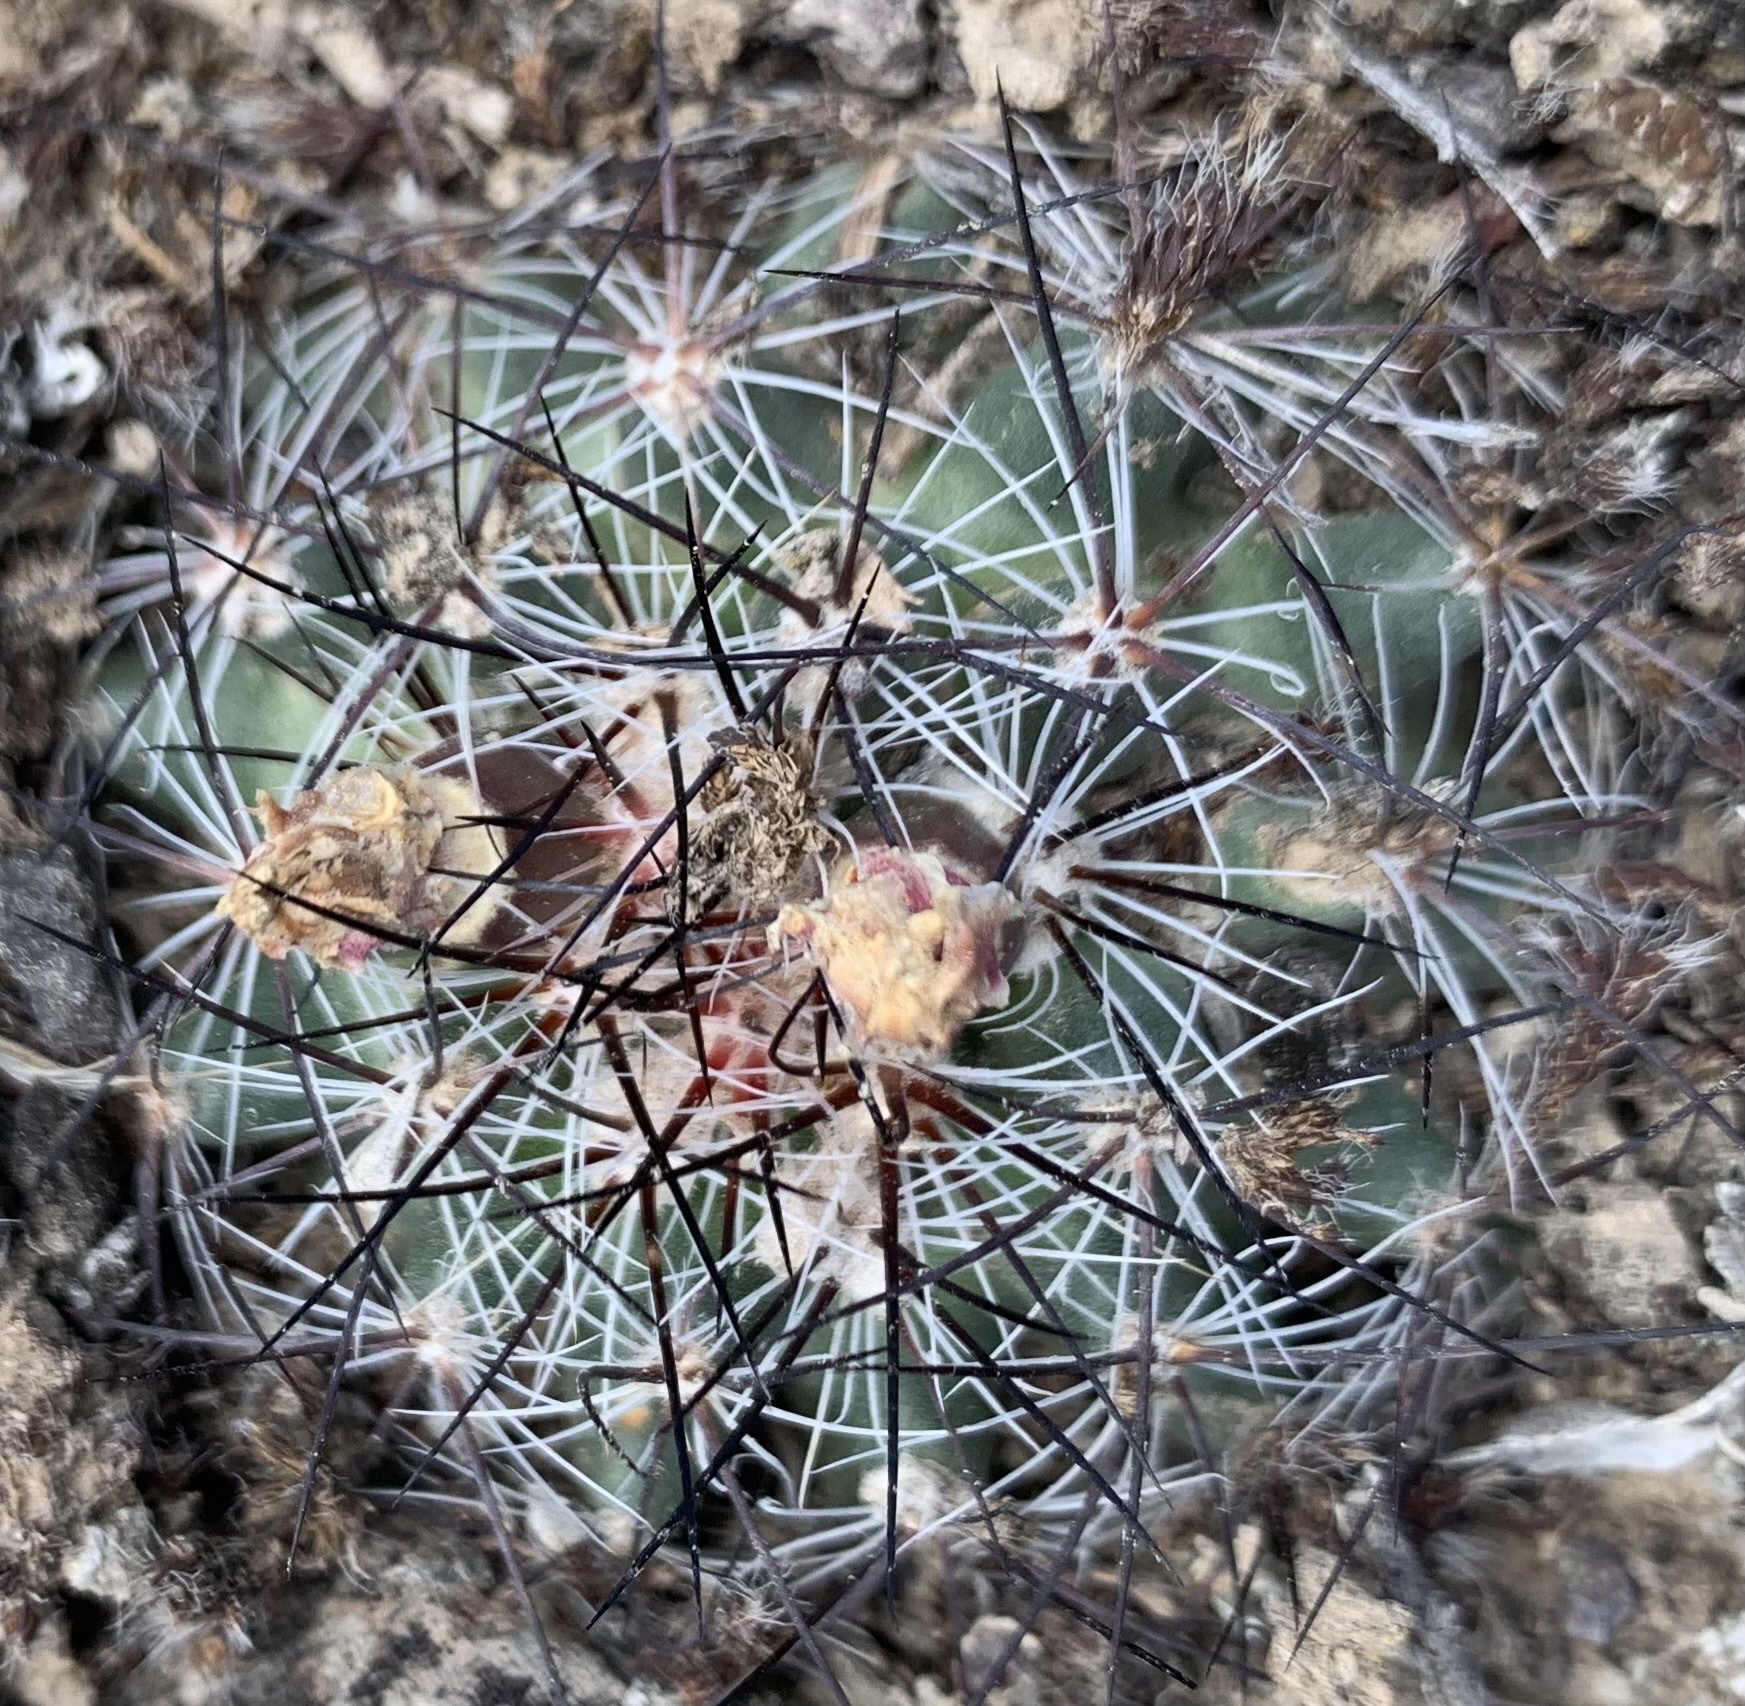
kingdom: Plantae
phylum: Tracheophyta
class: Magnoliopsida
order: Caryophyllales
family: Cactaceae
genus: Pediocactus
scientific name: Pediocactus simpsonii
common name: Simpson's hedgehog cactus
